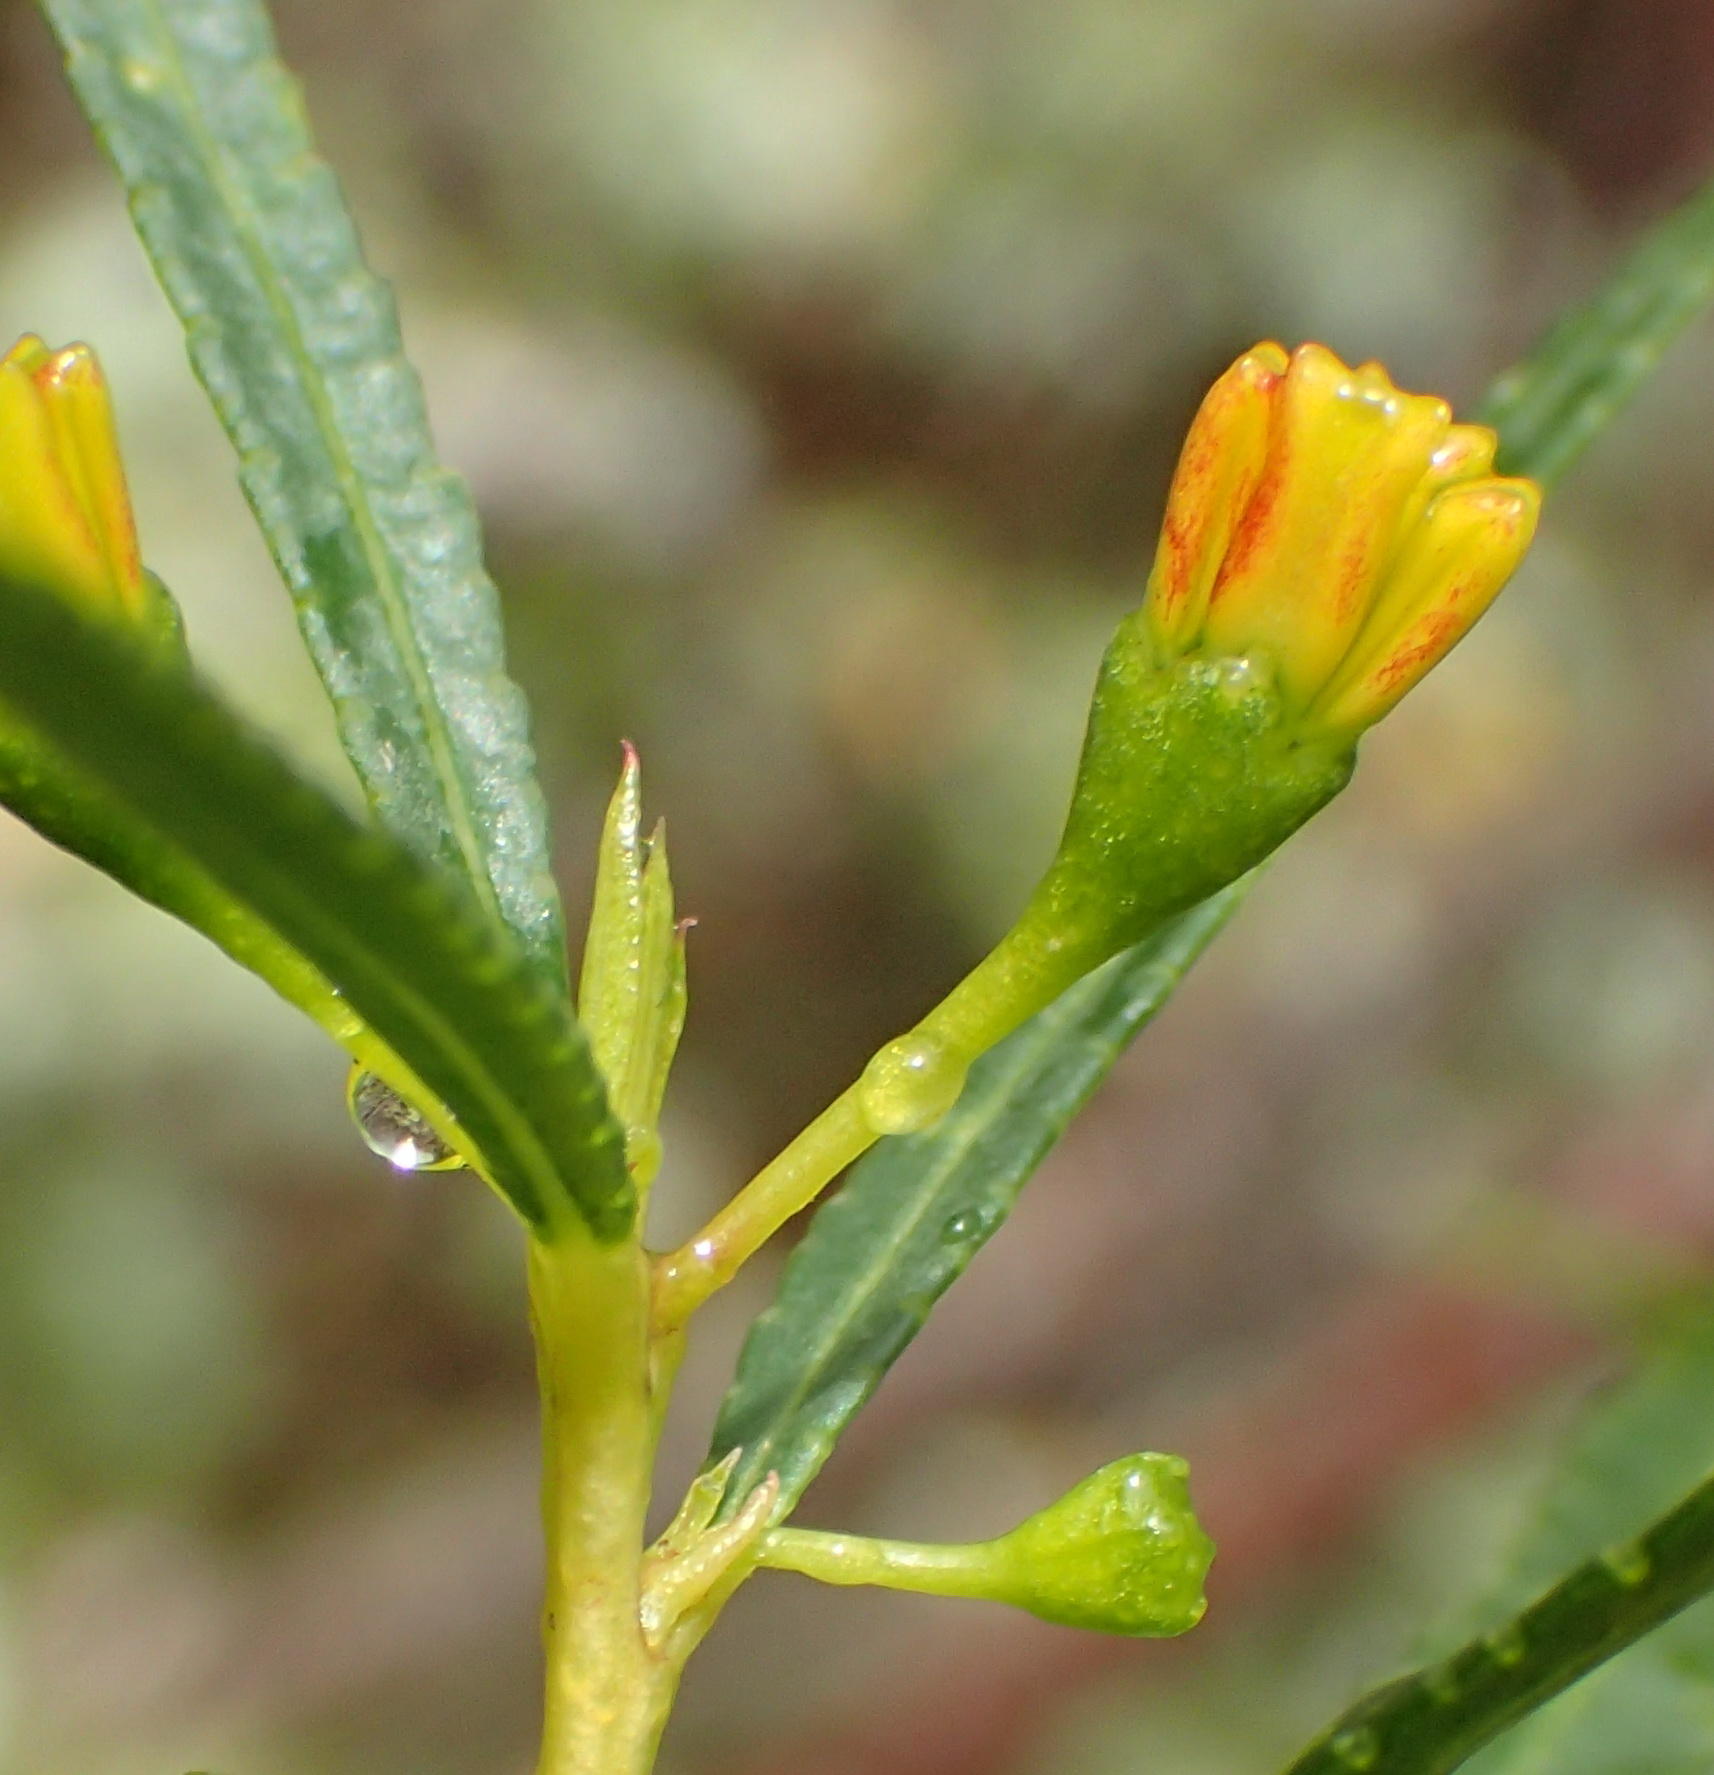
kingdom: Plantae
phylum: Tracheophyta
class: Magnoliopsida
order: Sapindales
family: Rutaceae
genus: Empleurum
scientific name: Empleurum unicapsulare
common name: False buchu
